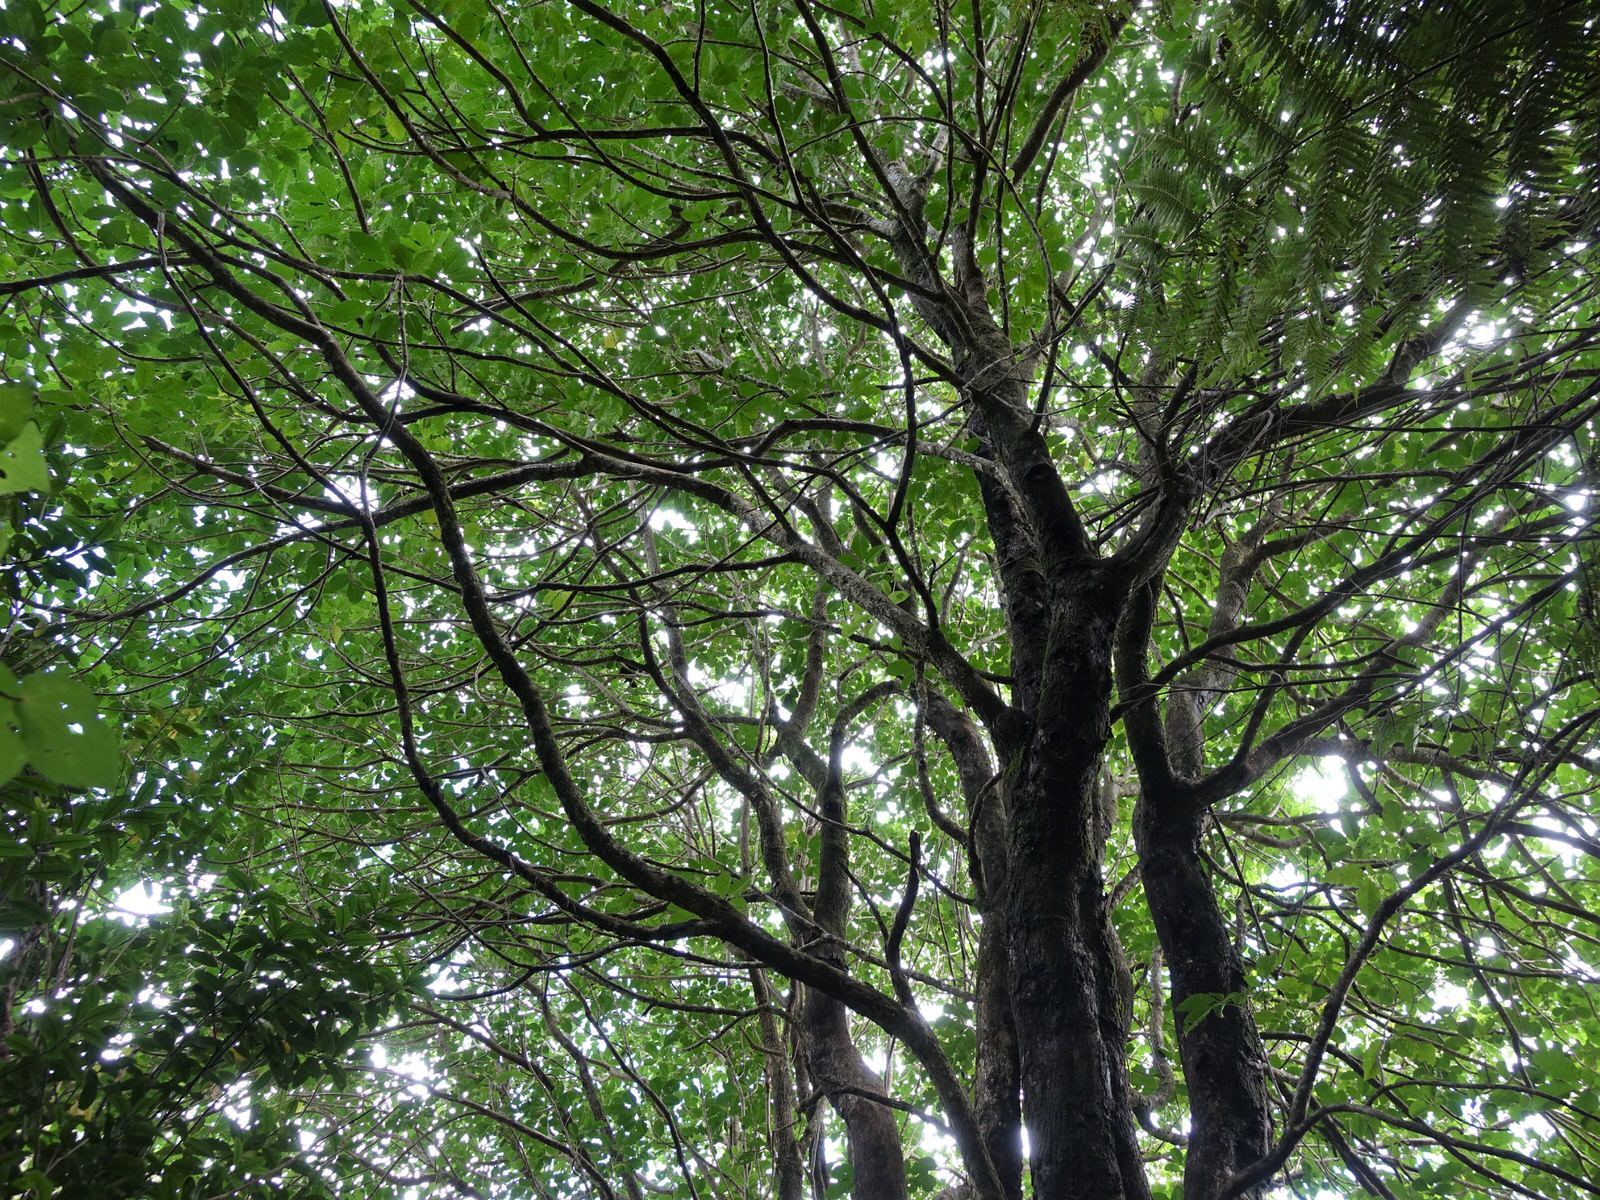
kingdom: Plantae
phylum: Tracheophyta
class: Magnoliopsida
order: Lamiales
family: Lamiaceae
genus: Vitex
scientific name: Vitex lucens
